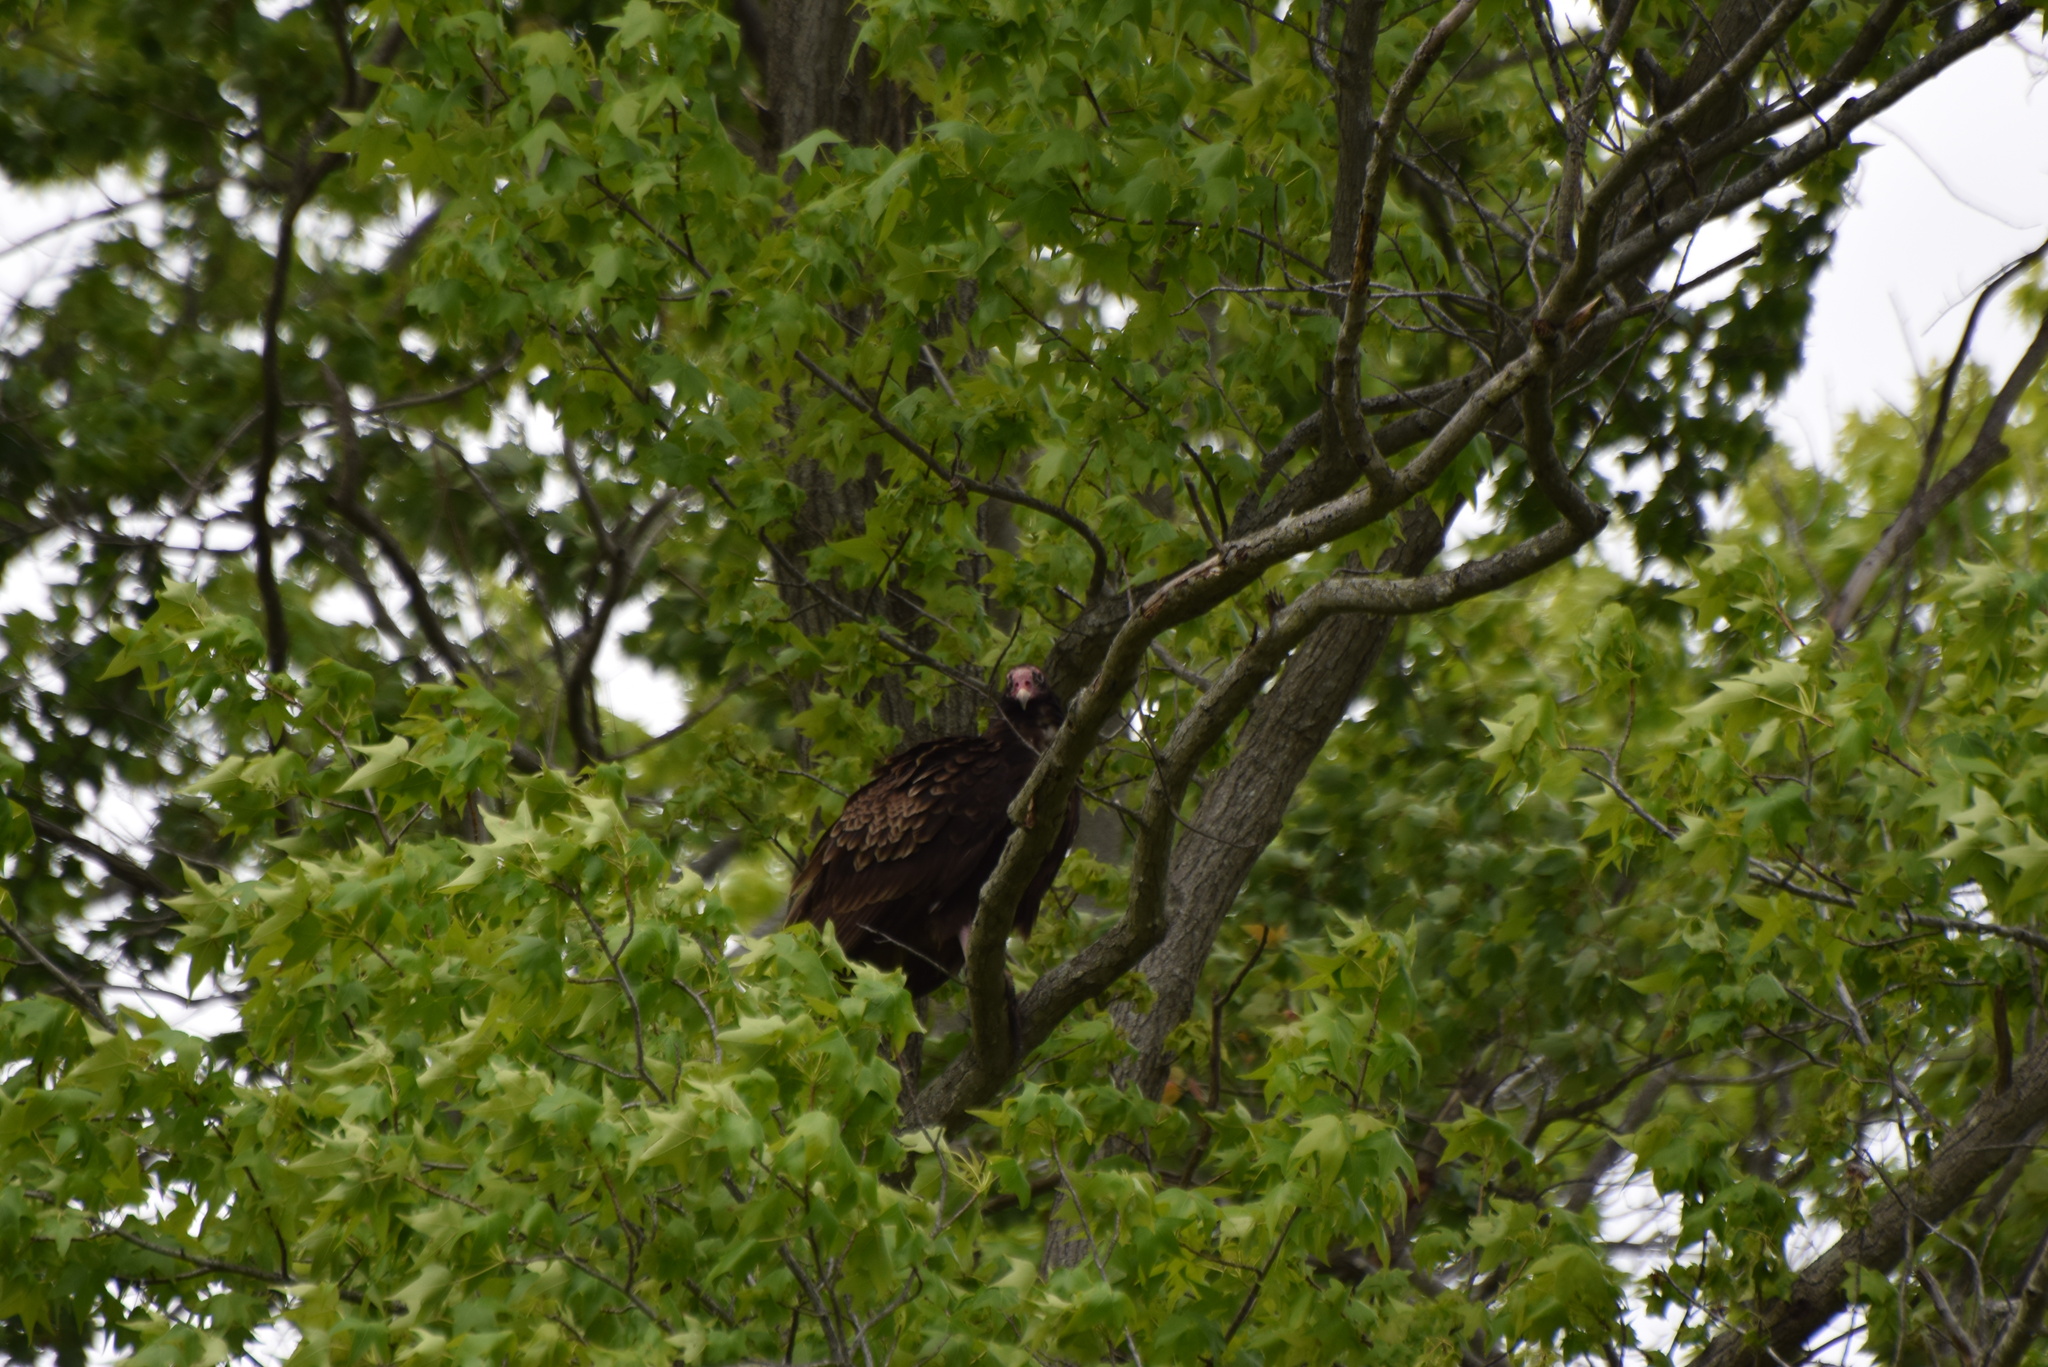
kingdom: Animalia
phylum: Chordata
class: Aves
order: Accipitriformes
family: Cathartidae
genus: Cathartes
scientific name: Cathartes aura
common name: Turkey vulture
